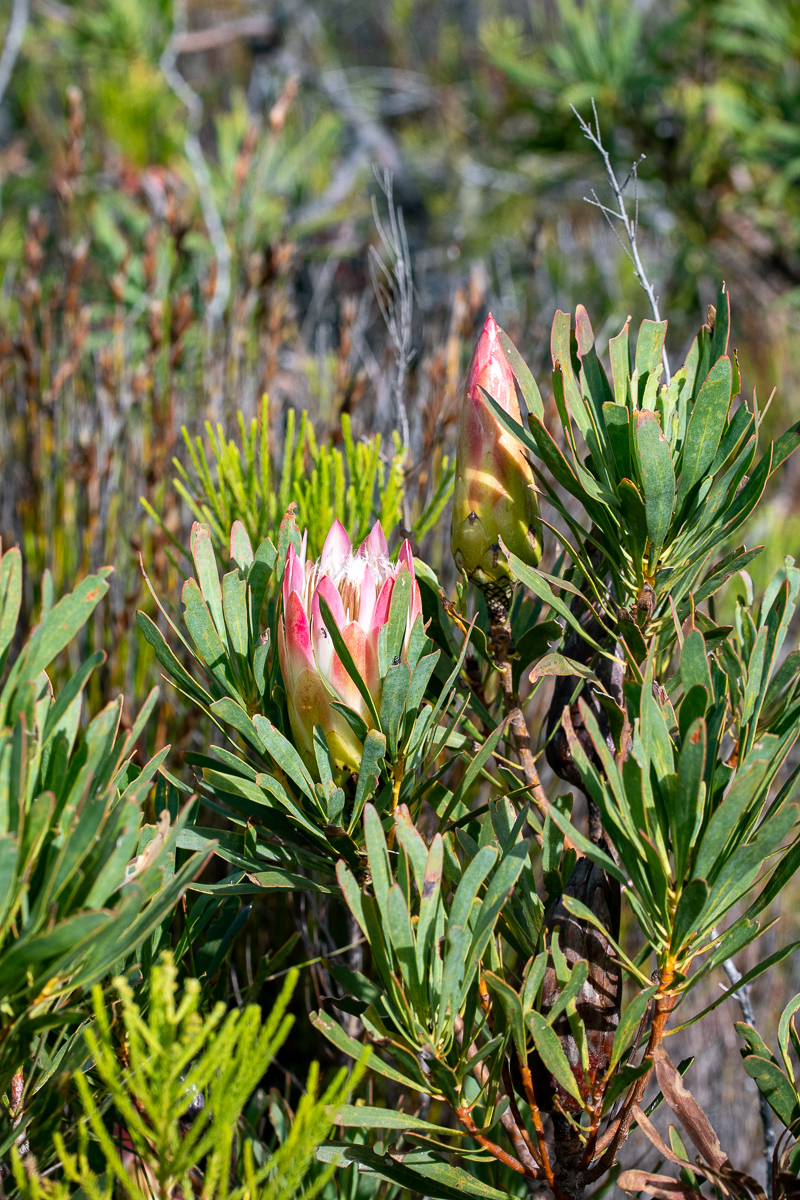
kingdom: Plantae
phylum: Tracheophyta
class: Magnoliopsida
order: Proteales
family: Proteaceae
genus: Protea
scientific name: Protea repens
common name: Sugarbush
